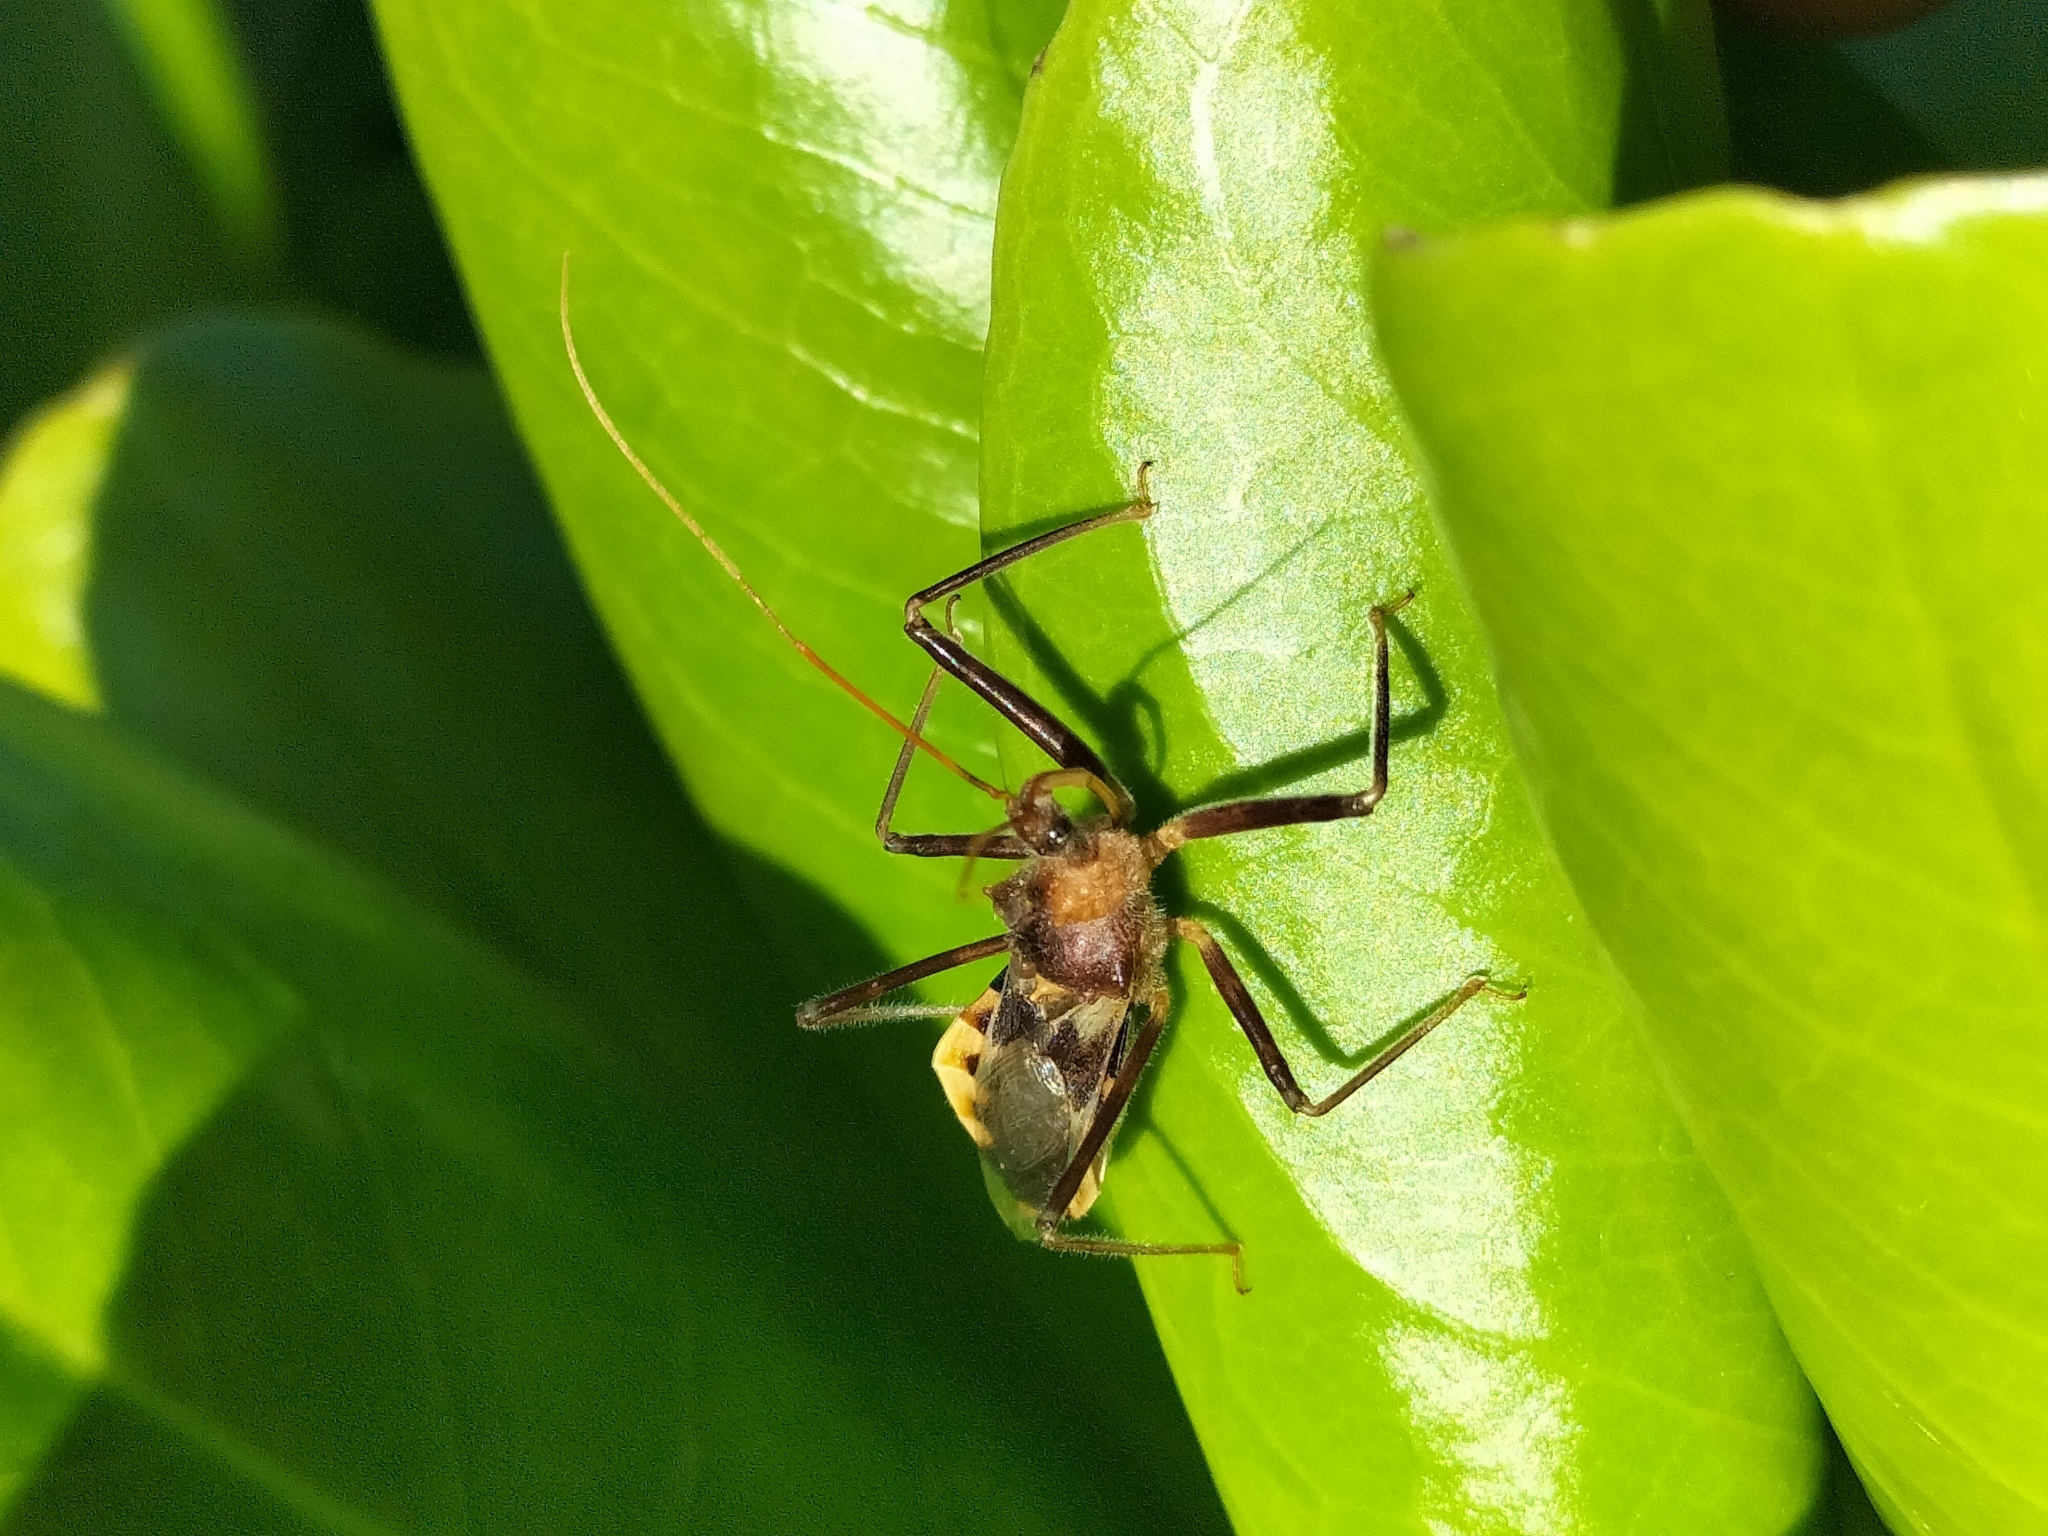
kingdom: Animalia
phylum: Arthropoda
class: Insecta
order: Hemiptera
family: Reduviidae
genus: Pristhesancus
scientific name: Pristhesancus chlamydatus
